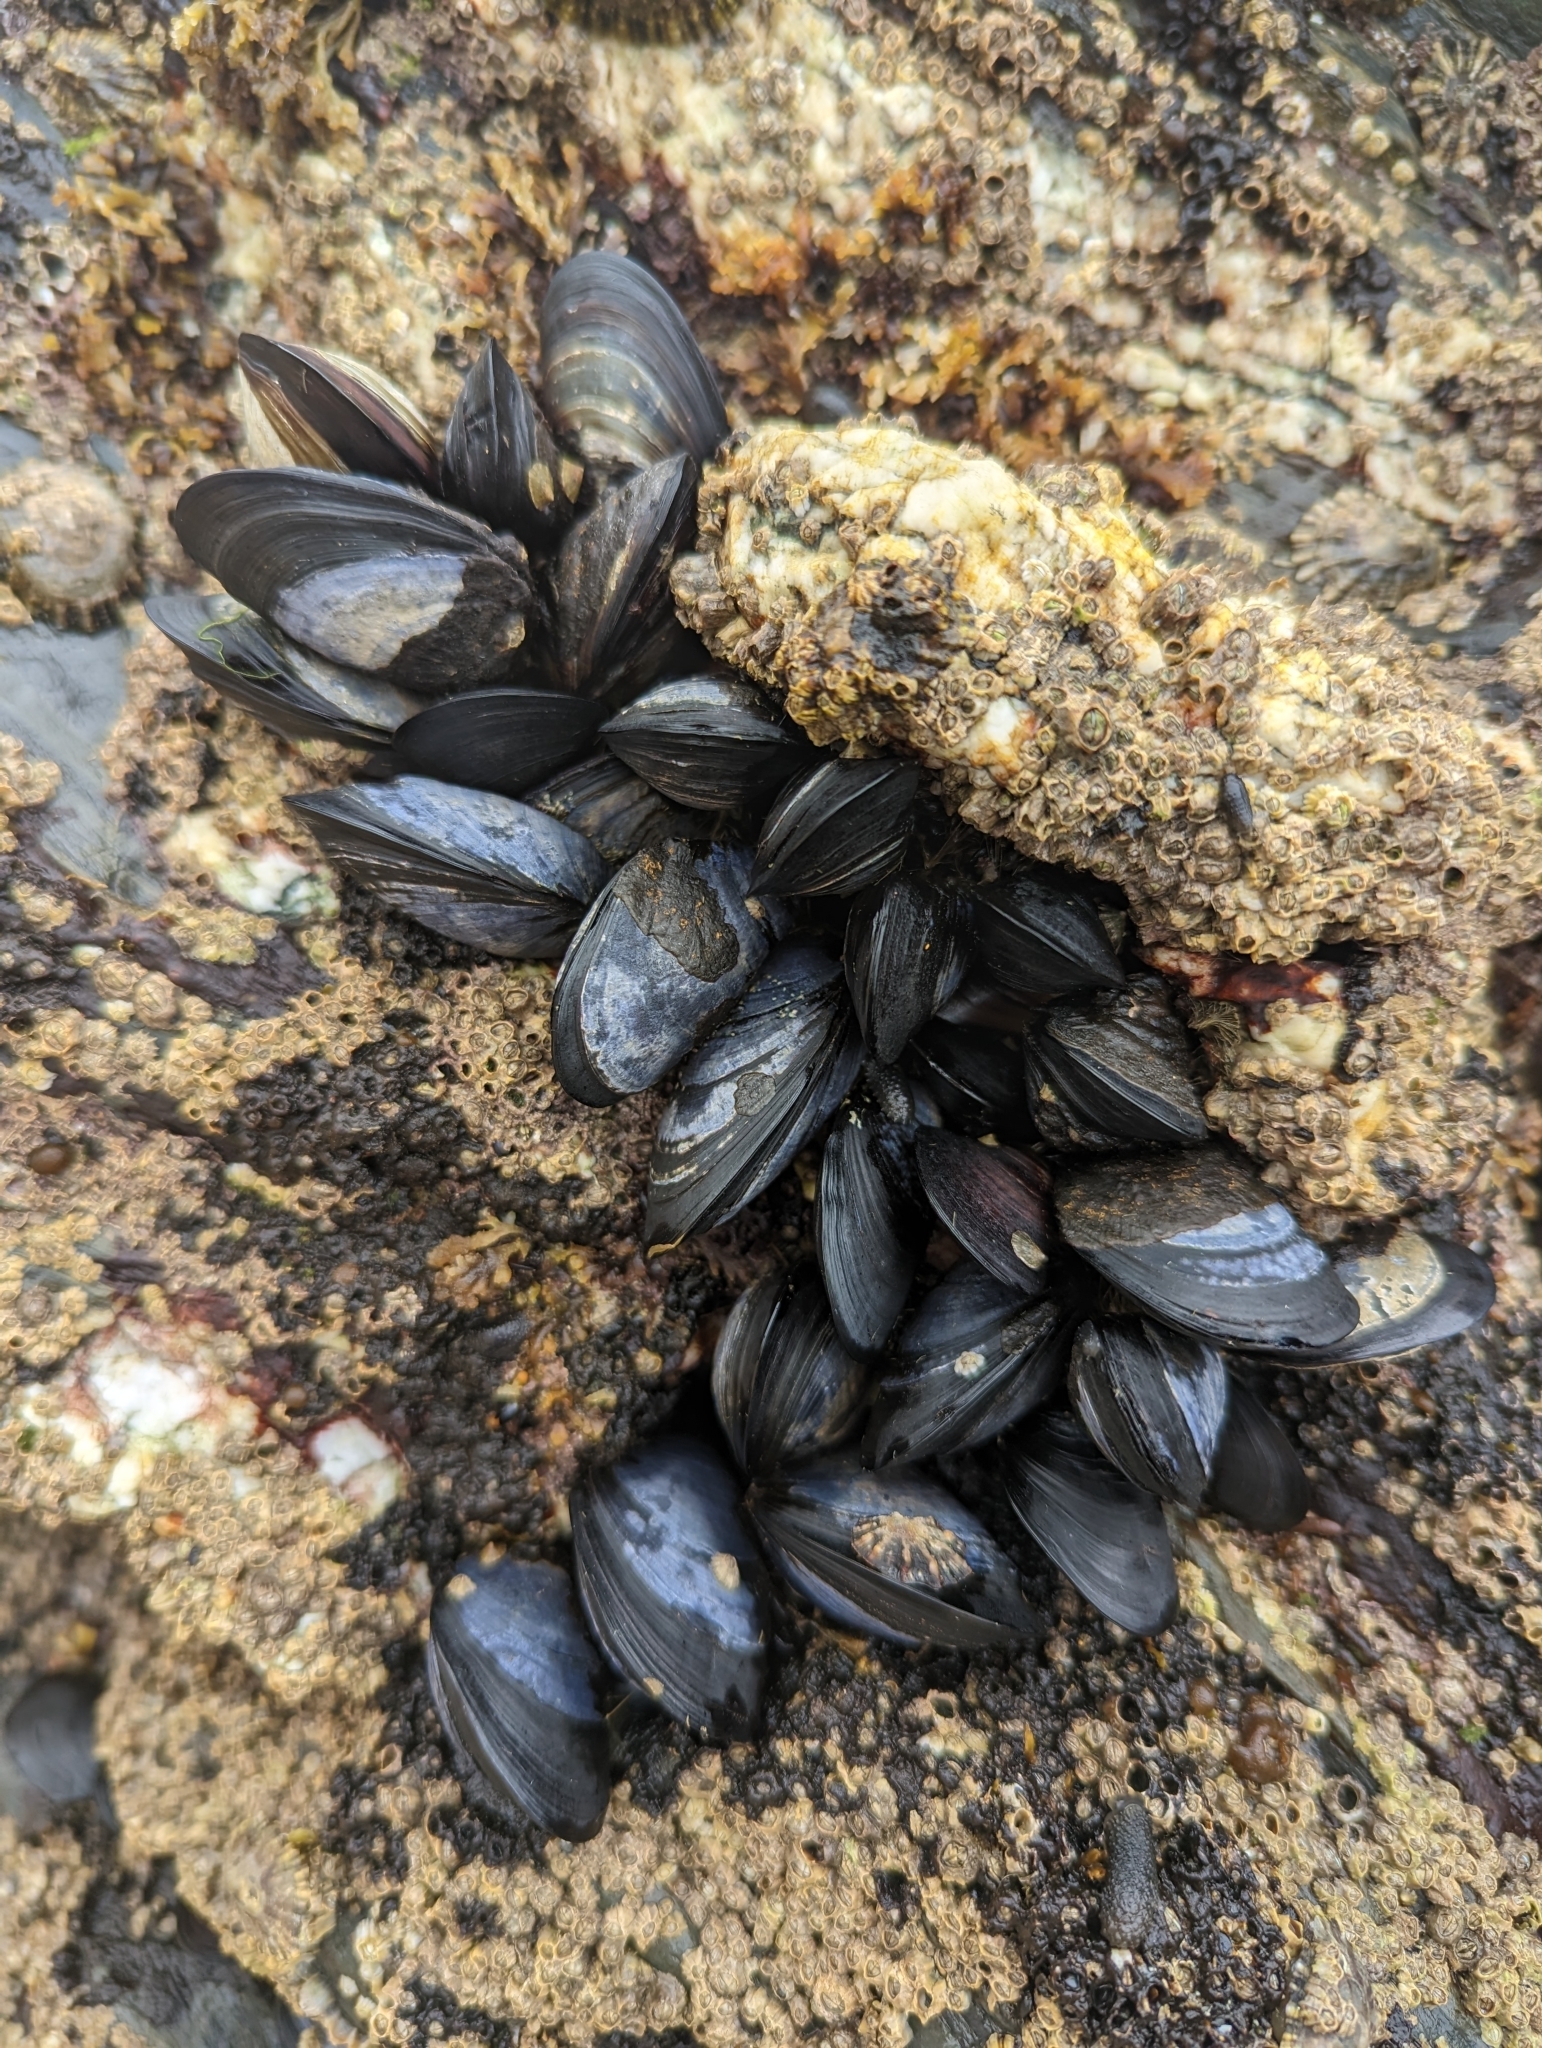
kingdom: Animalia
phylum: Mollusca
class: Bivalvia
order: Mytilida
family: Mytilidae
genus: Mytilus
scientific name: Mytilus edulis
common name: Blue mussel
